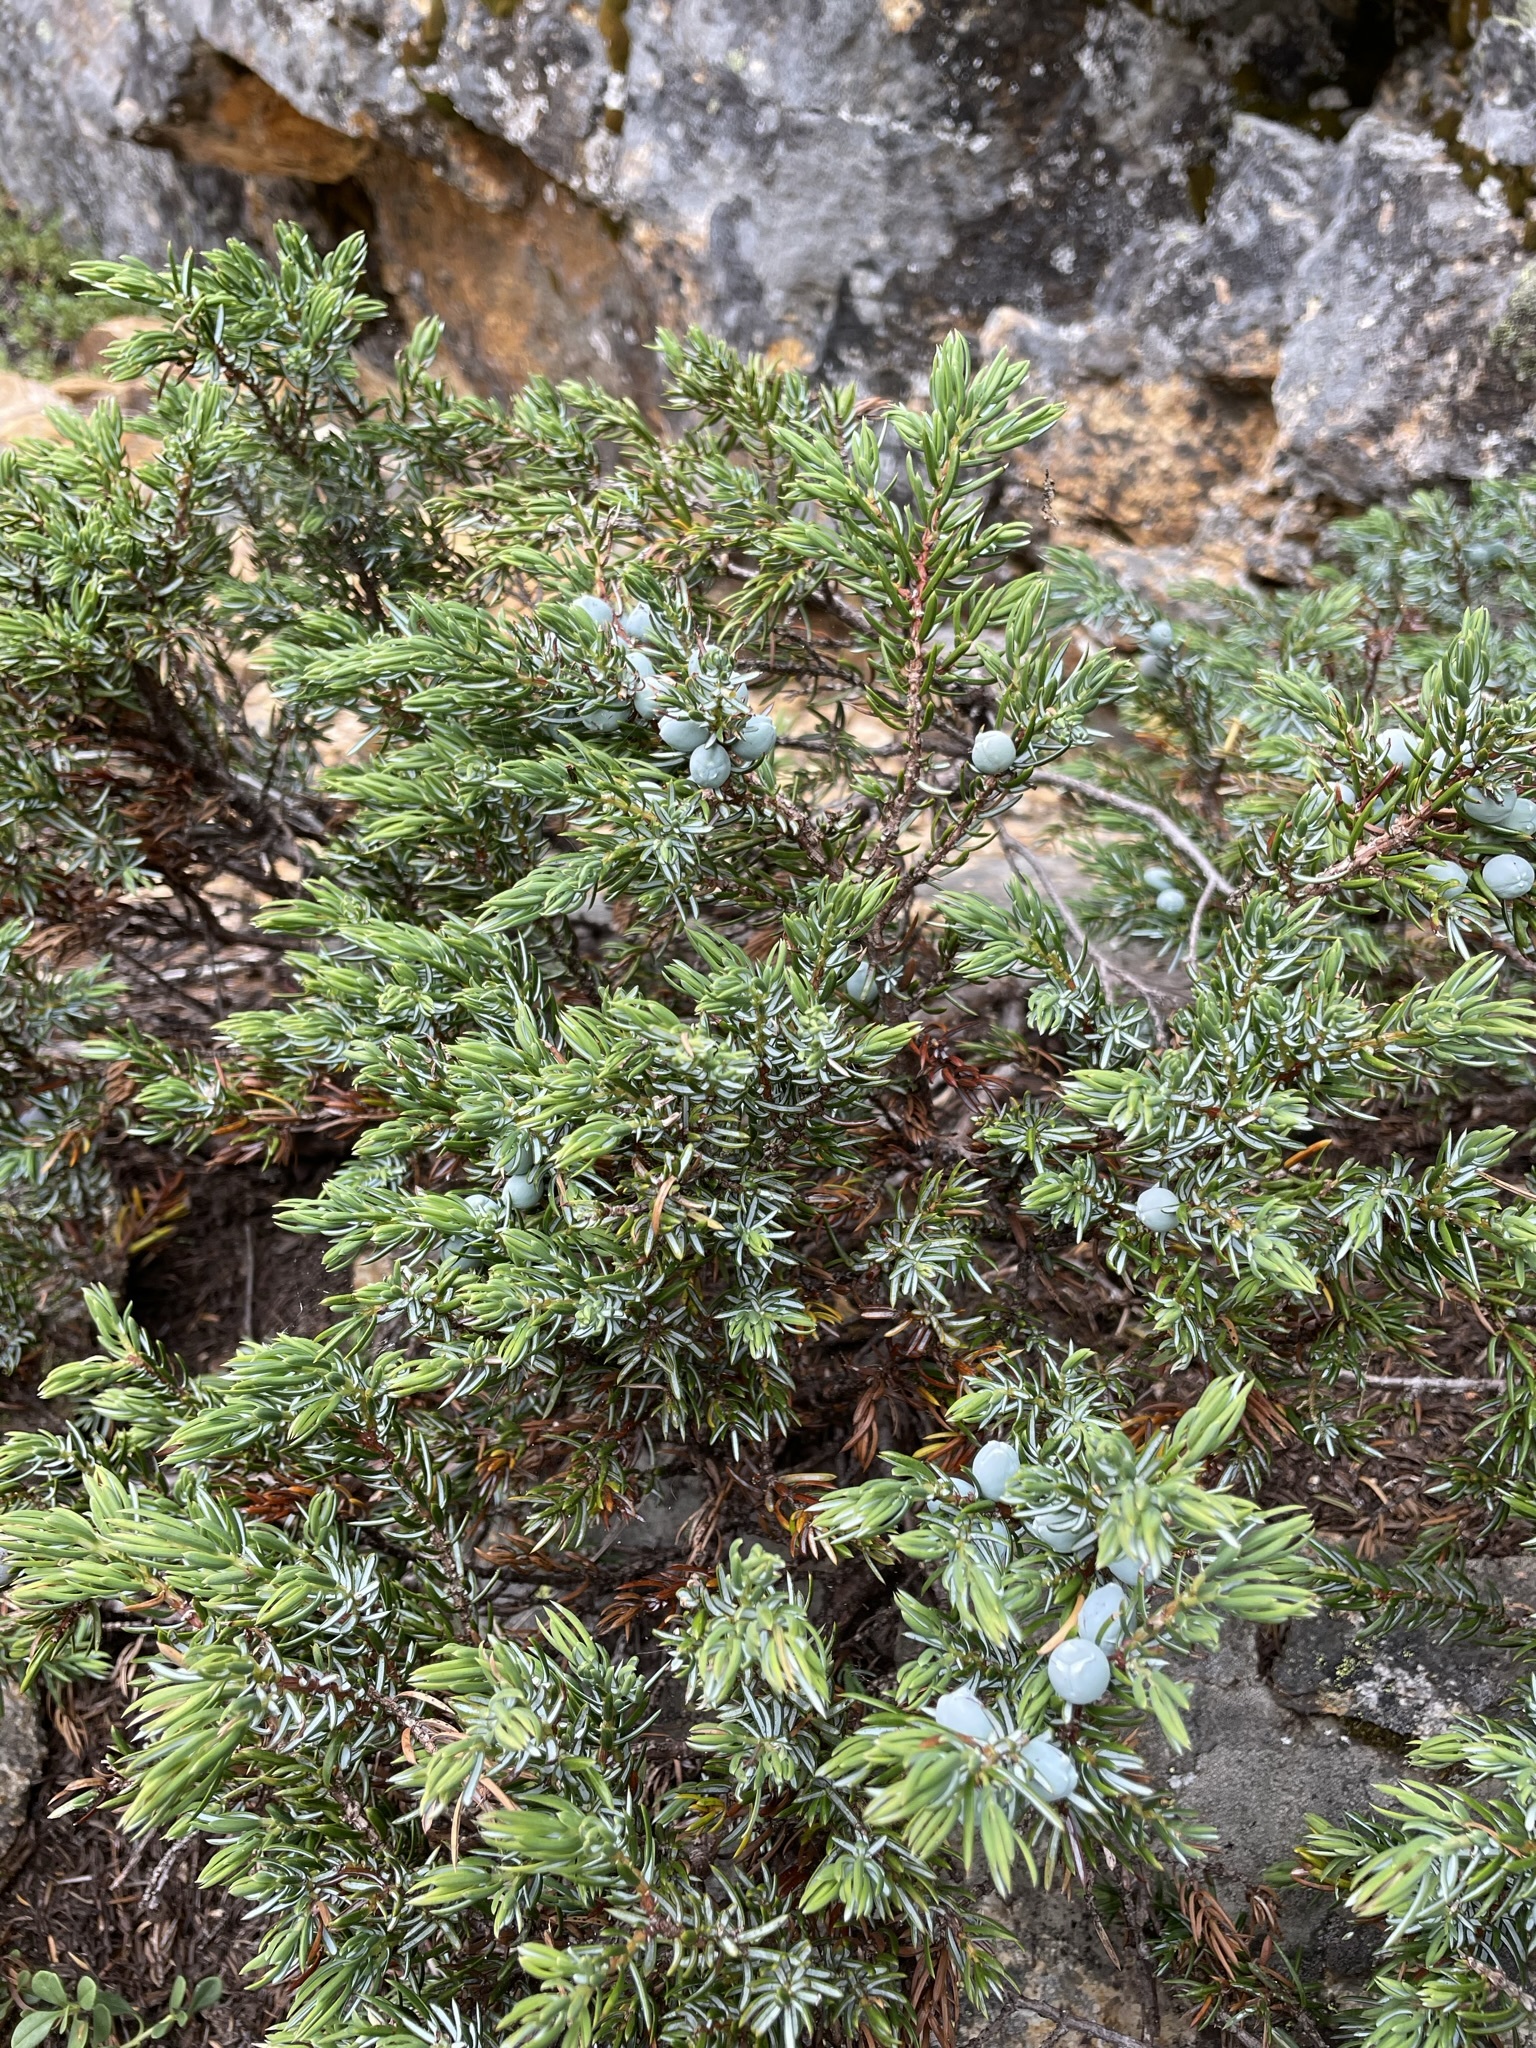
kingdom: Plantae
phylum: Tracheophyta
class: Pinopsida
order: Pinales
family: Cupressaceae
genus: Juniperus
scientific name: Juniperus communis
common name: Common juniper
